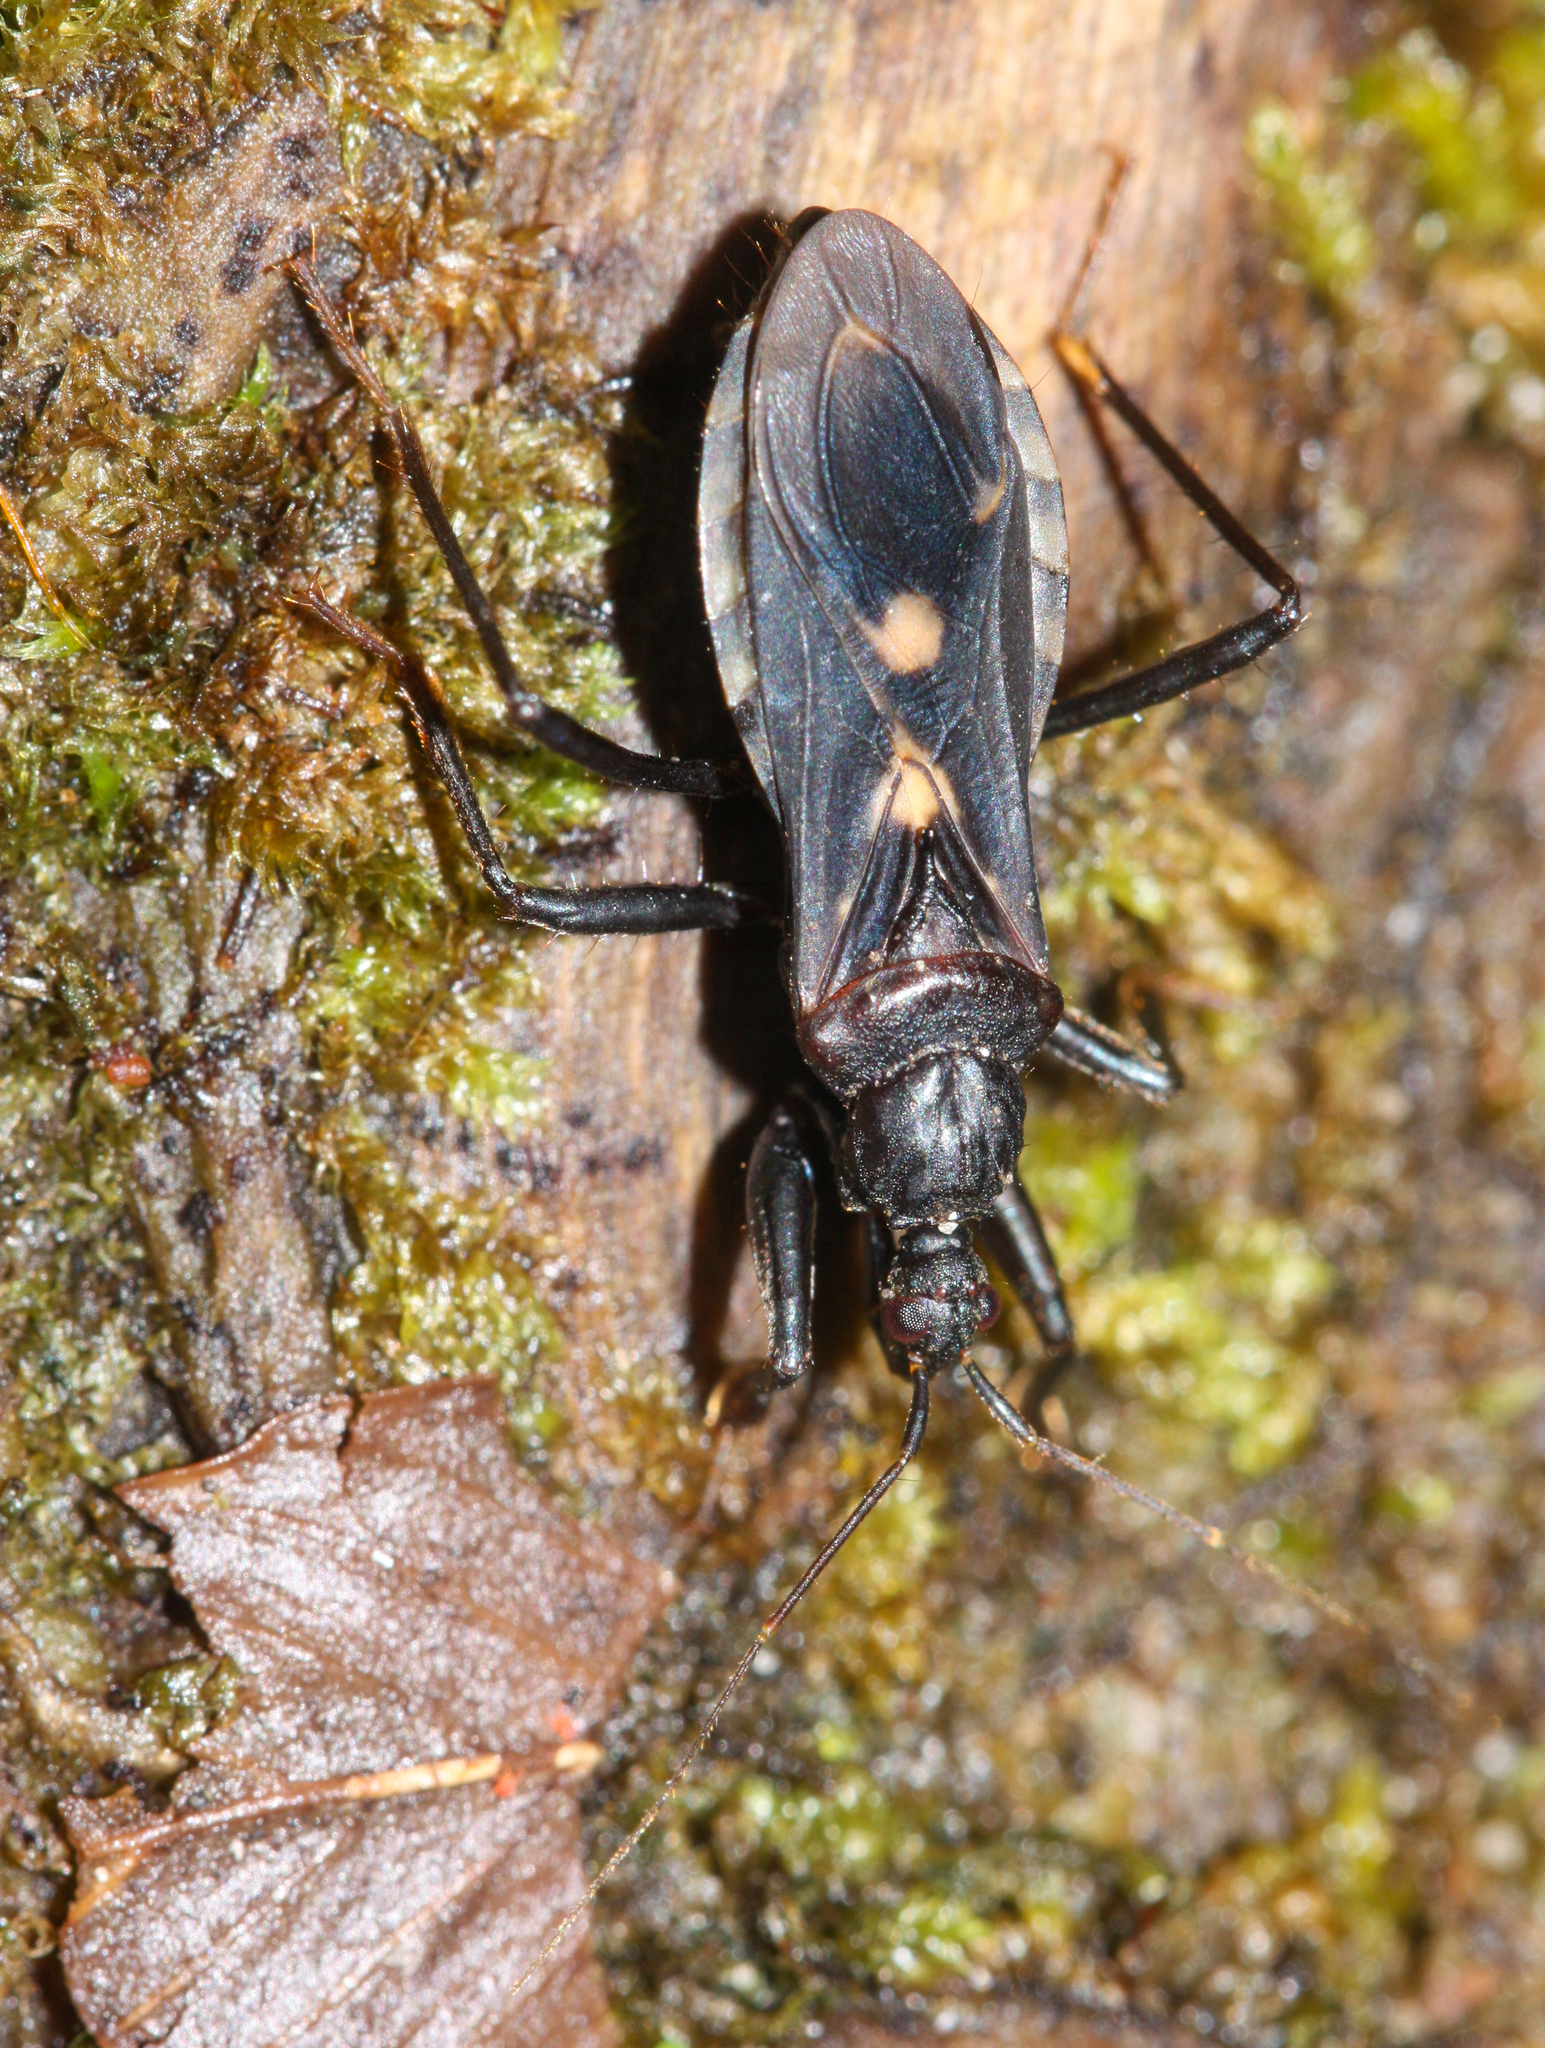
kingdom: Animalia
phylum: Arthropoda
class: Insecta
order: Hemiptera
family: Reduviidae
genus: Rasahus
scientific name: Rasahus guttatipennis
